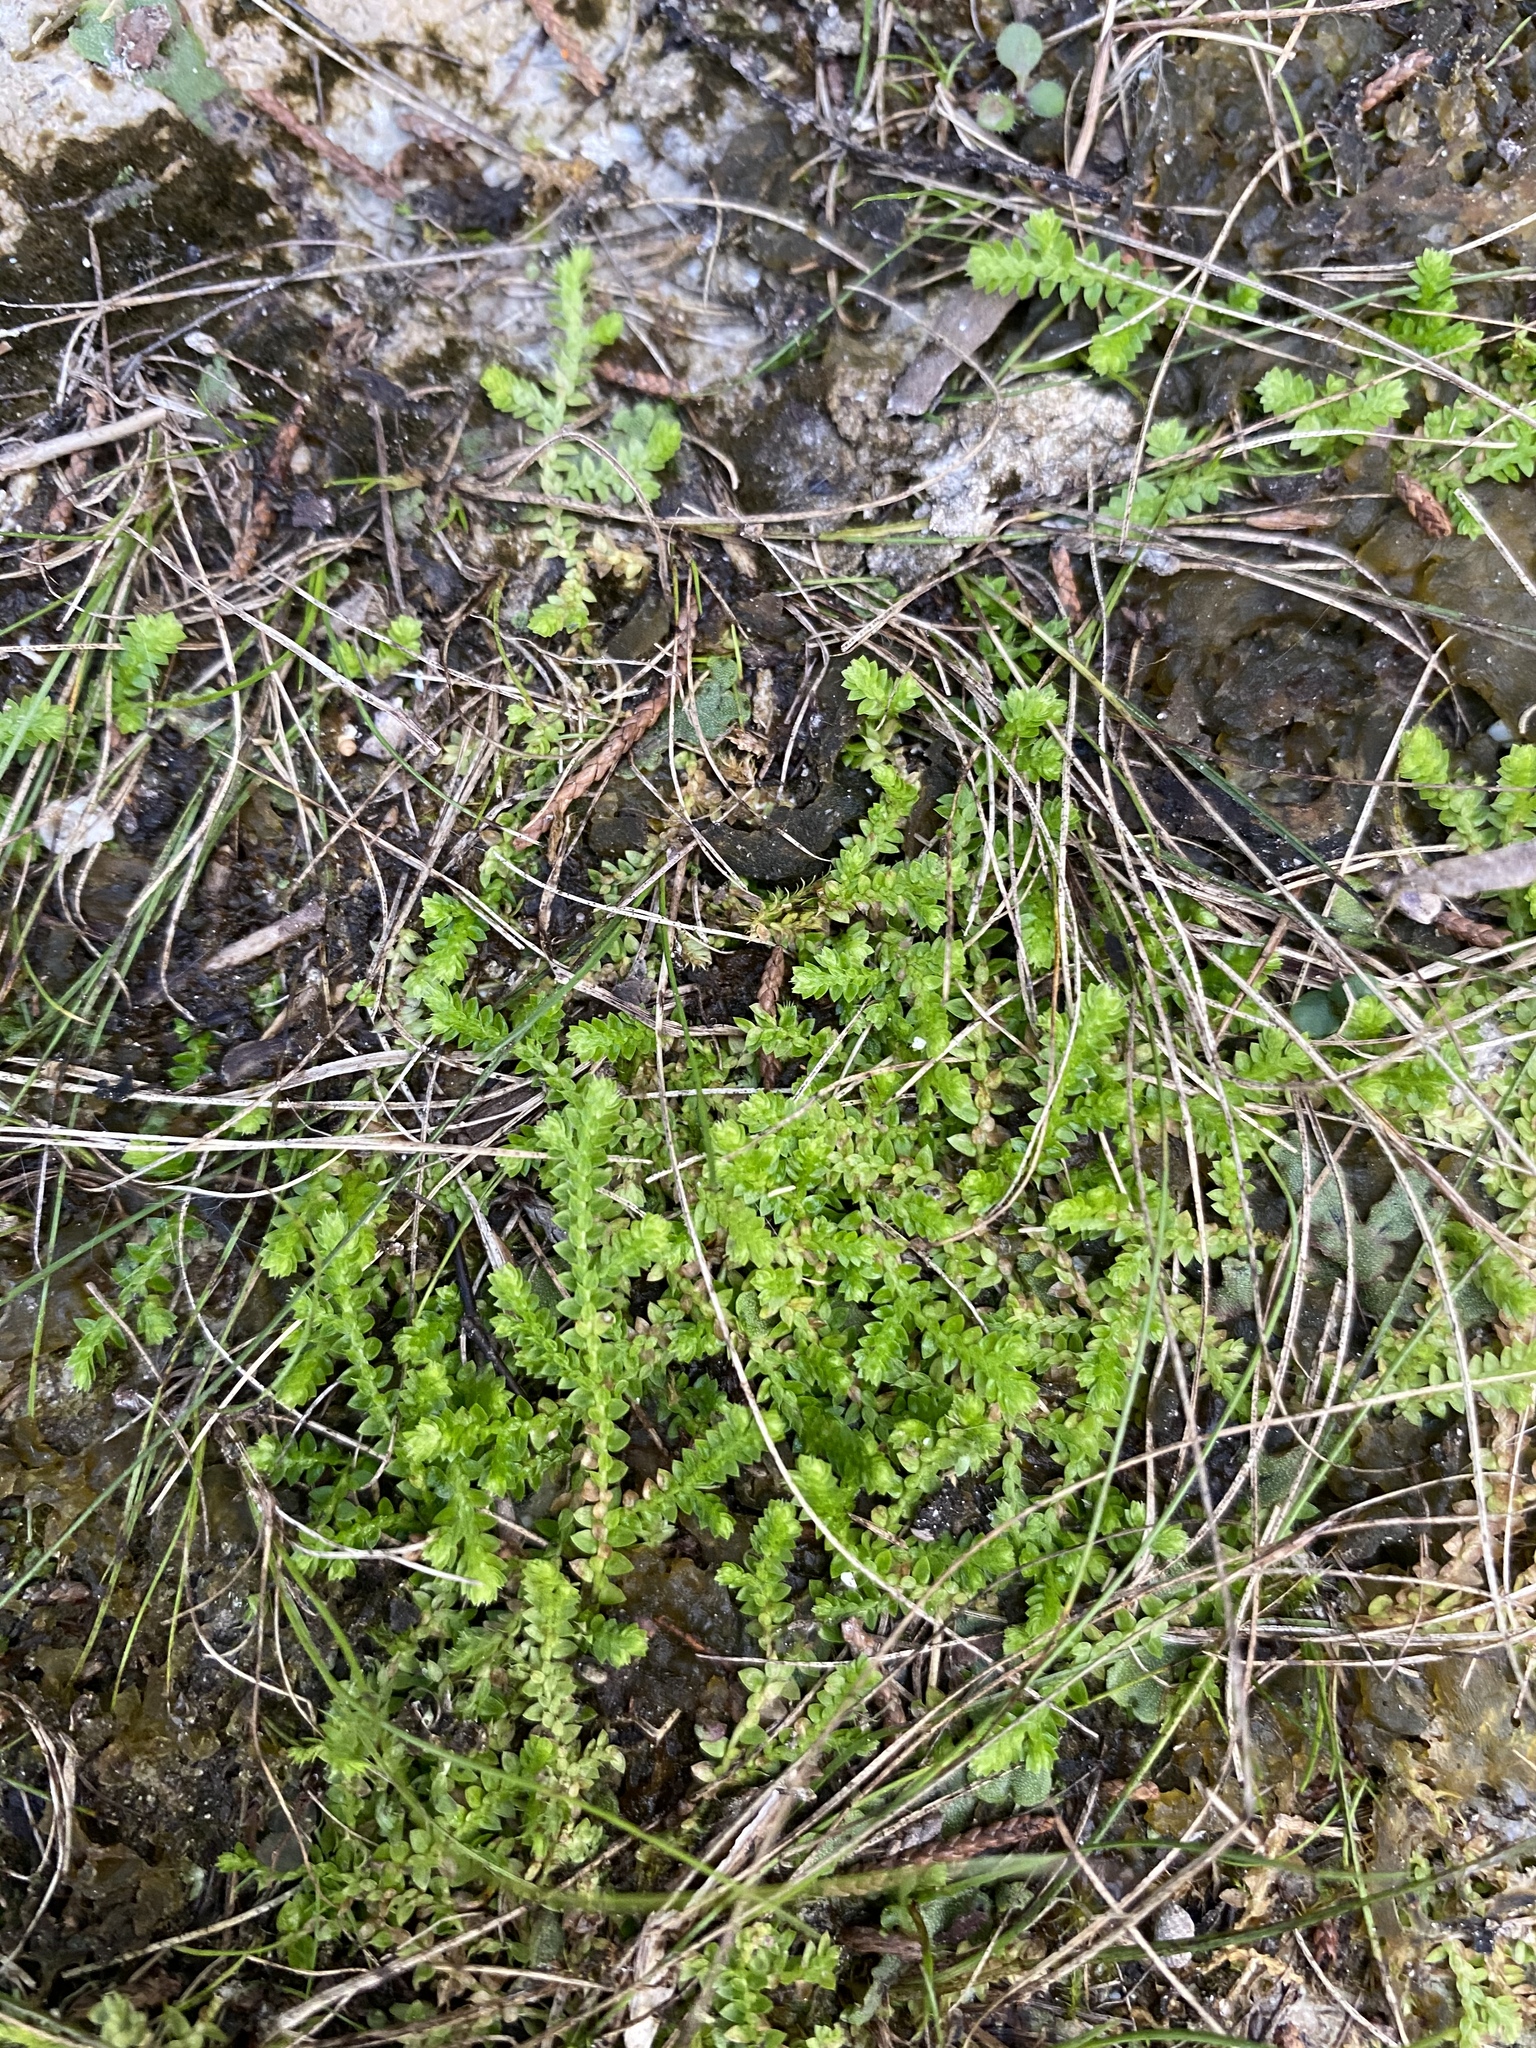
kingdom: Plantae
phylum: Tracheophyta
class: Lycopodiopsida
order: Selaginellales
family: Selaginellaceae
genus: Selaginella
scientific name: Selaginella apoda
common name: Creeping spikemoss
